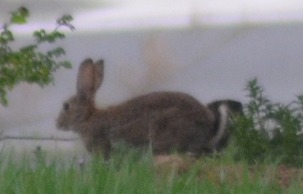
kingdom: Animalia
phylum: Chordata
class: Mammalia
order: Lagomorpha
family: Leporidae
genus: Oryctolagus
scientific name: Oryctolagus cuniculus
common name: European rabbit
